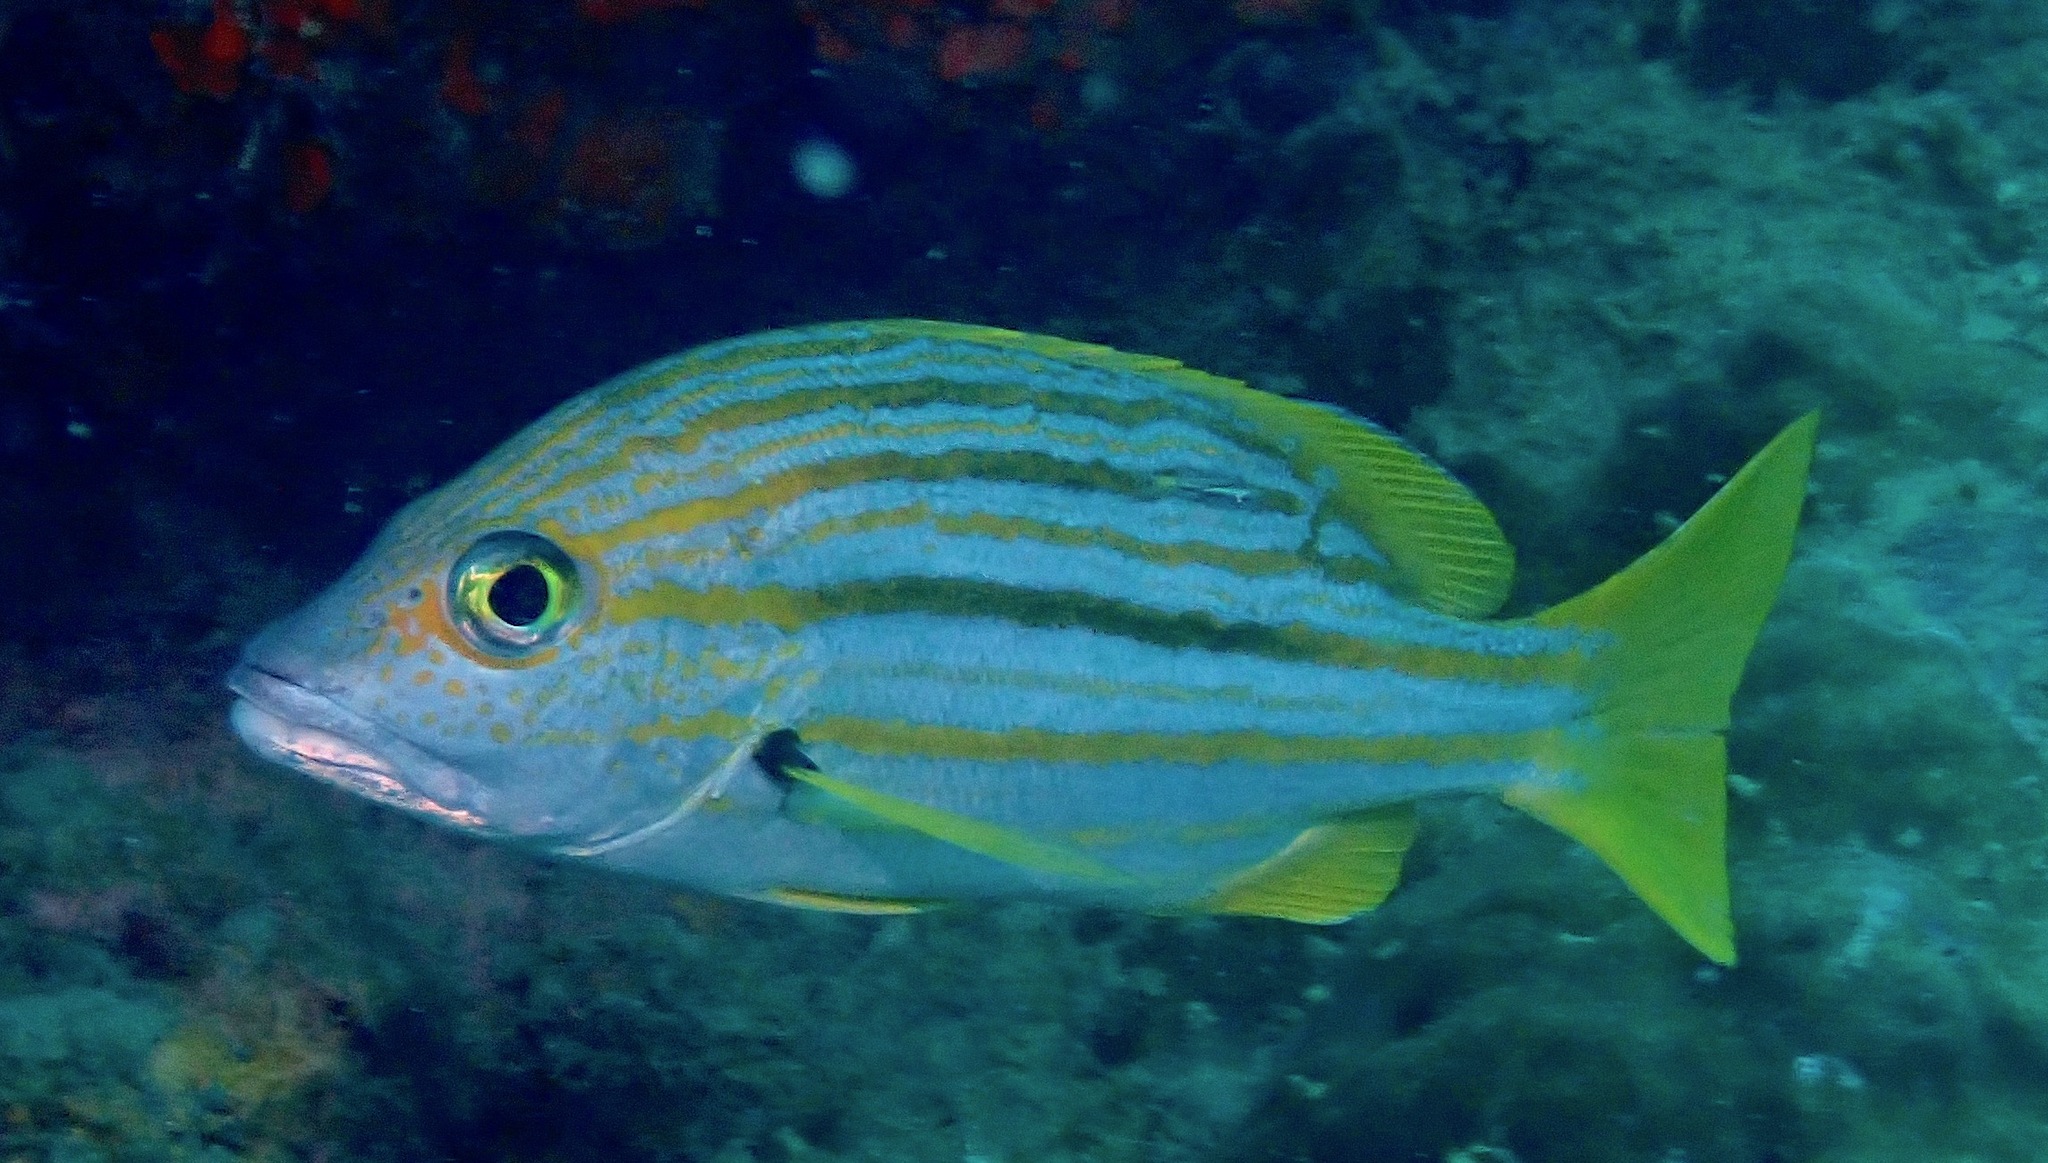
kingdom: Animalia
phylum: Chordata
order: Perciformes
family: Lutjanidae
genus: Lutjanus
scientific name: Lutjanus carponotatus
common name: Spanish flag
